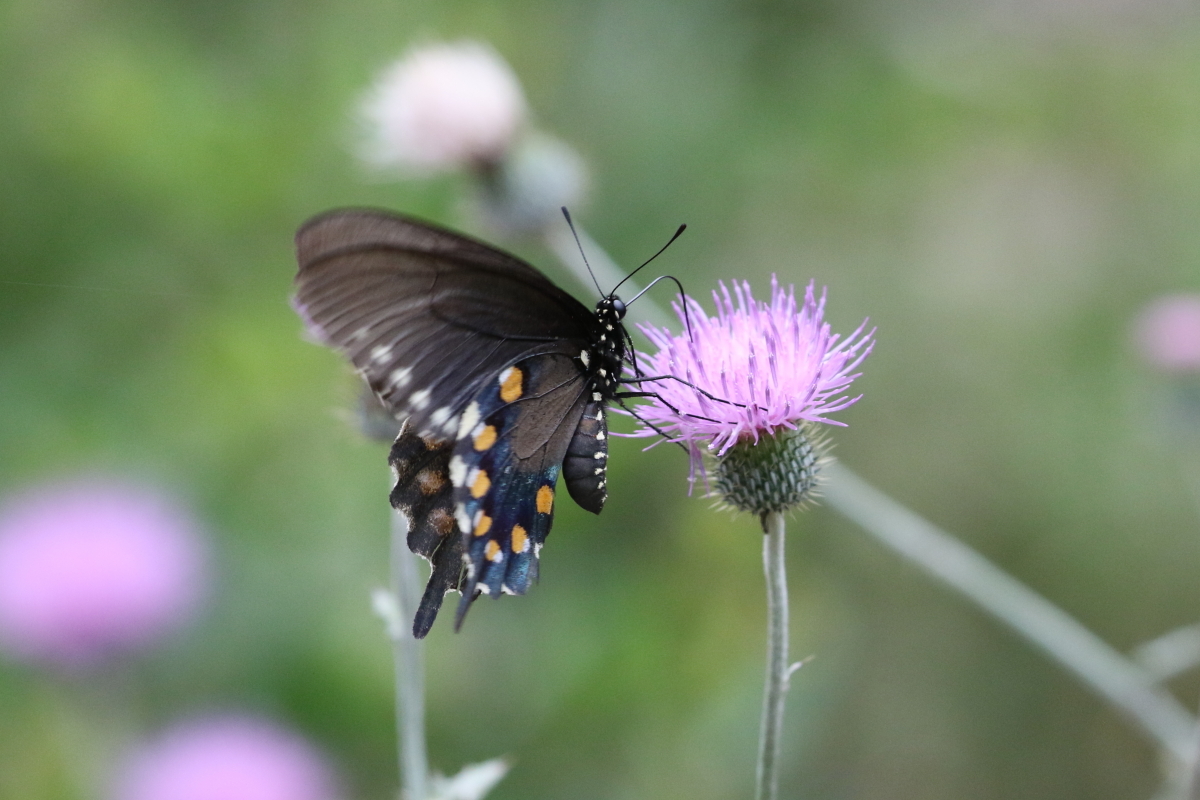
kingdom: Animalia
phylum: Arthropoda
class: Insecta
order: Lepidoptera
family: Papilionidae
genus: Battus
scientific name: Battus philenor
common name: Pipevine swallowtail
